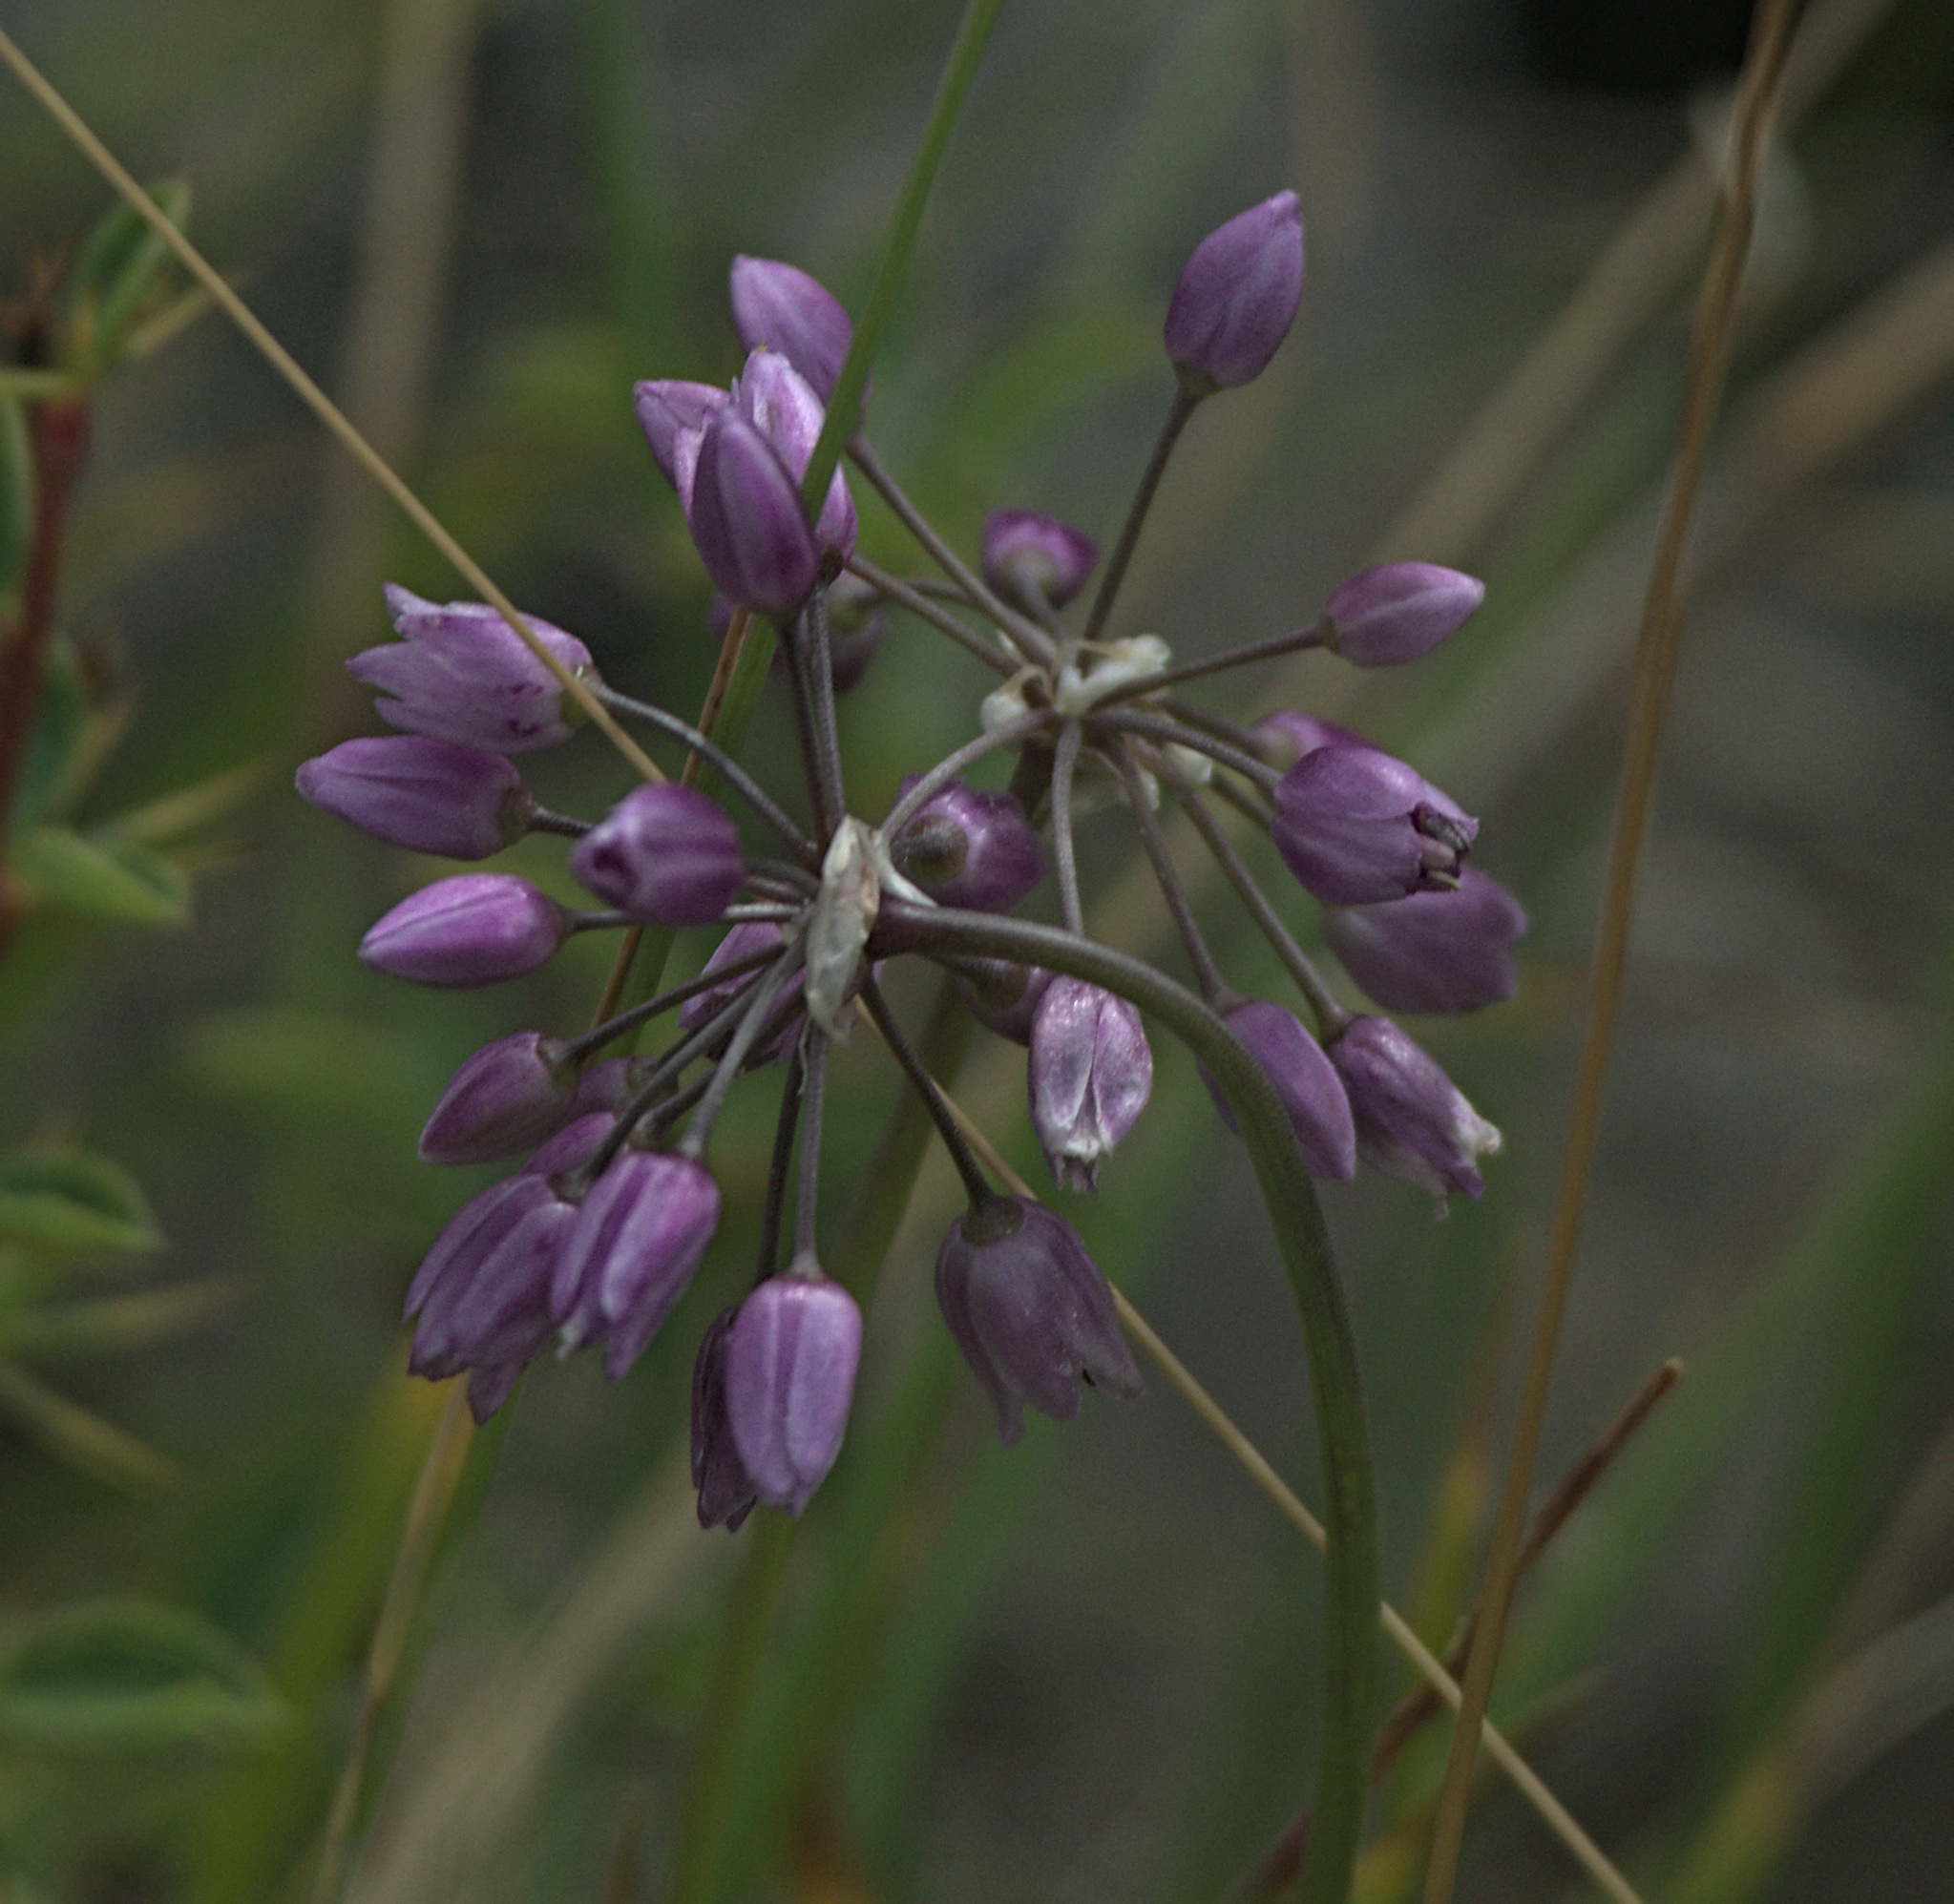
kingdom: Plantae
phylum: Tracheophyta
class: Liliopsida
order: Asparagales
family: Amaryllidaceae
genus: Allium
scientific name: Allium rubens
